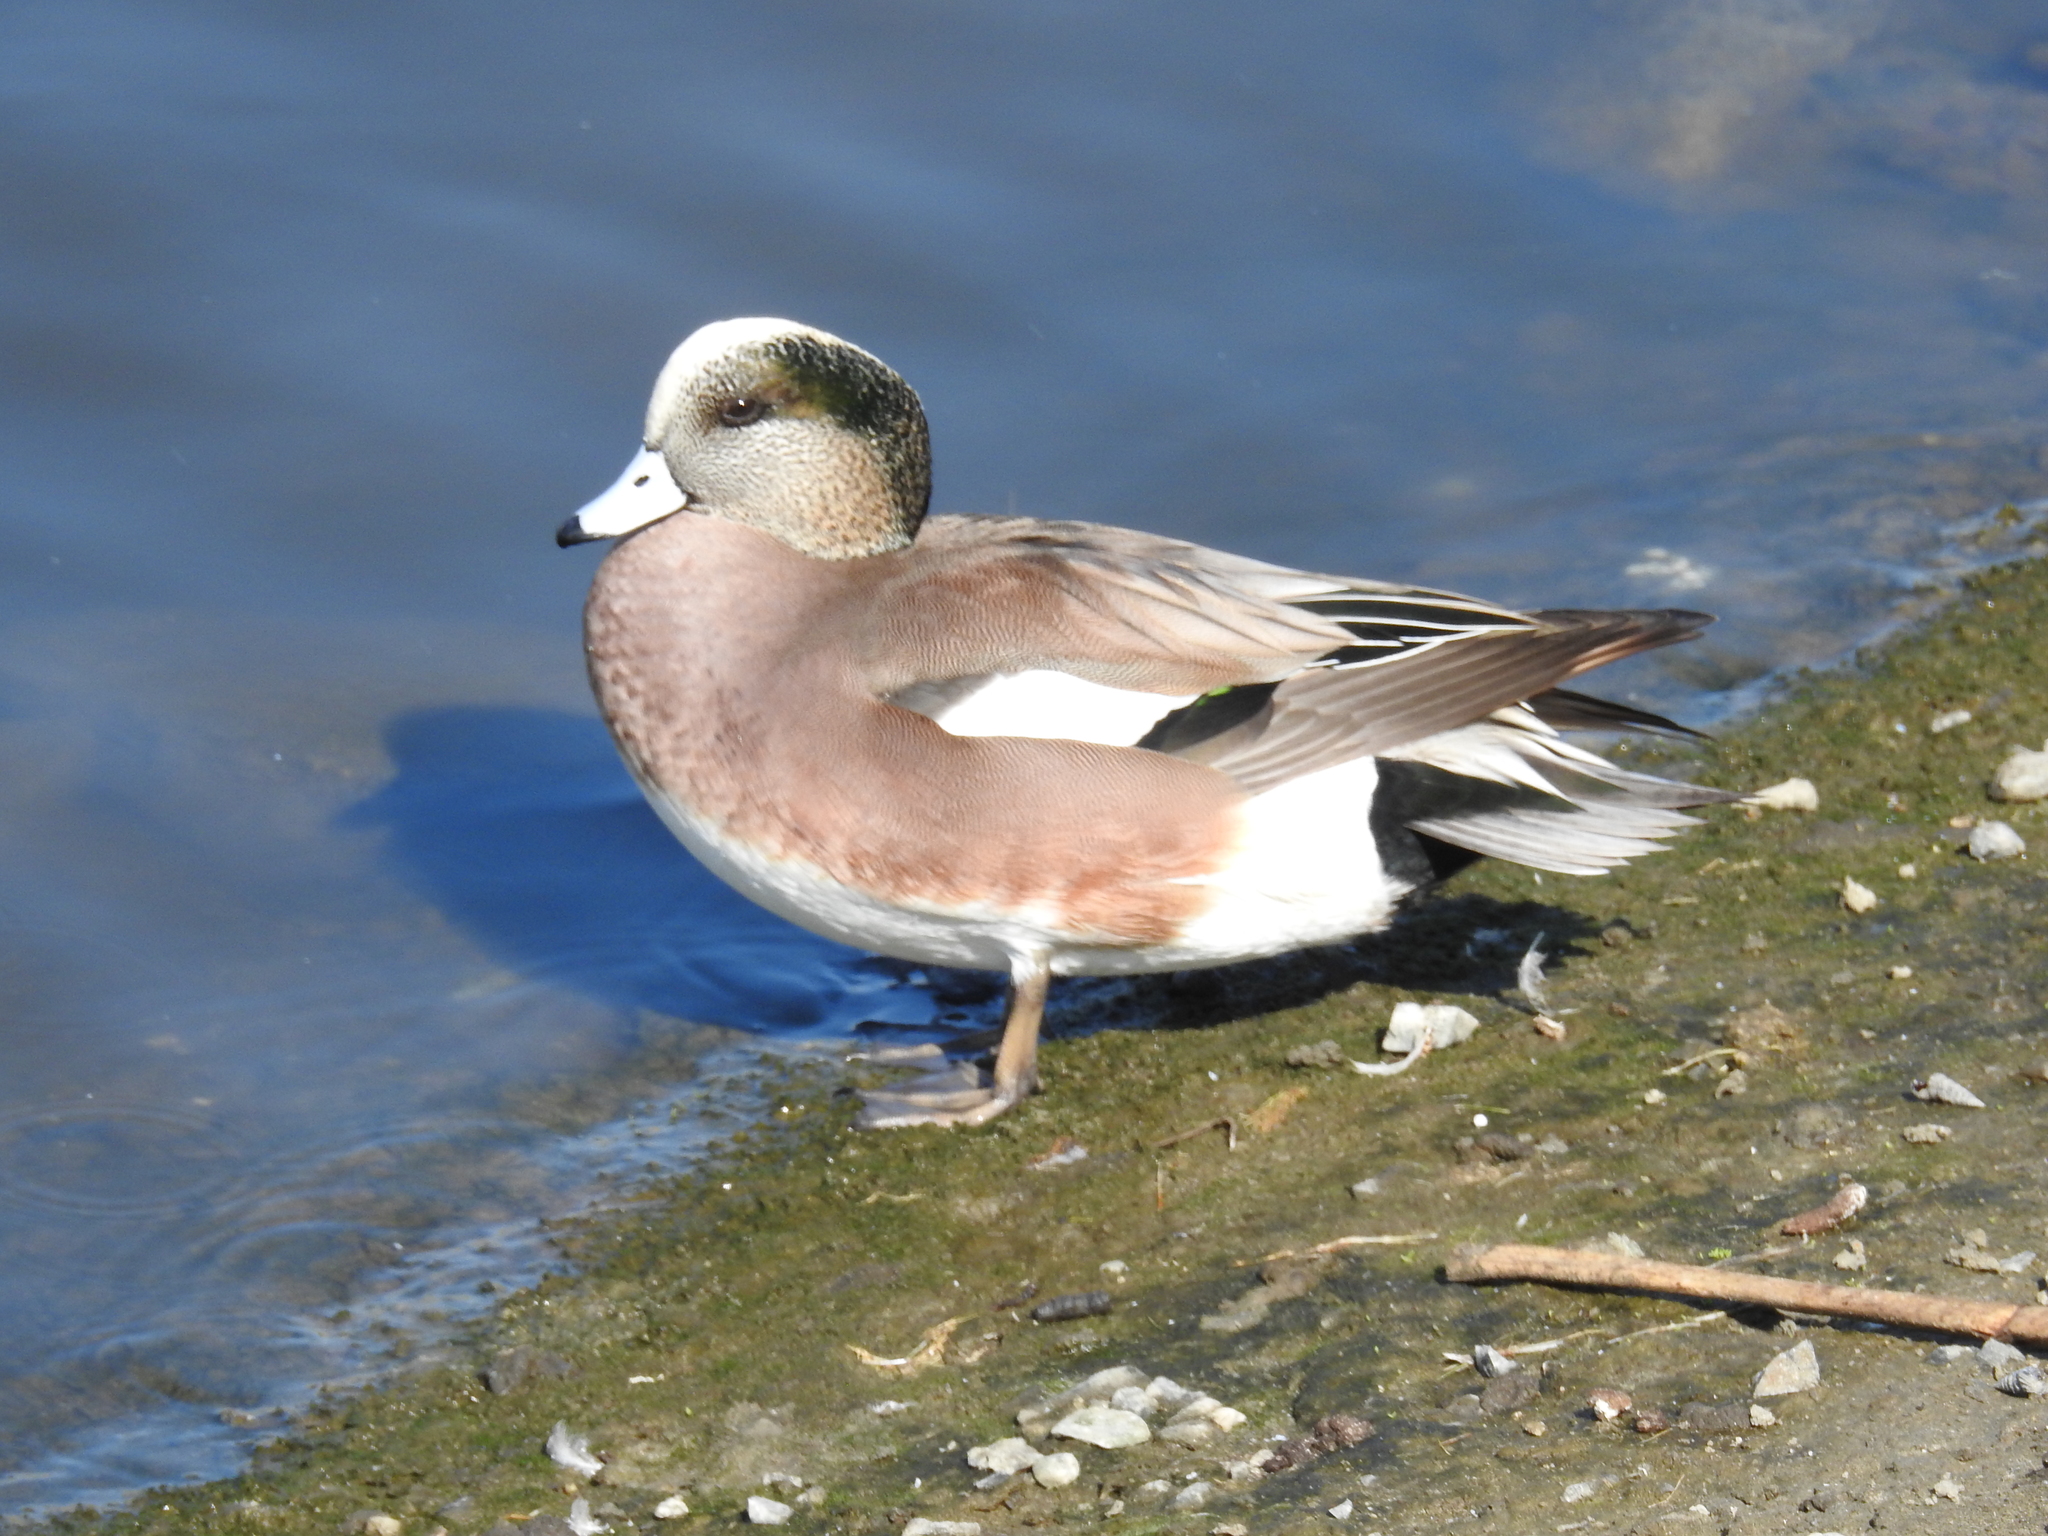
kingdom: Animalia
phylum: Chordata
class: Aves
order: Anseriformes
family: Anatidae
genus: Mareca
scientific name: Mareca americana
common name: American wigeon
